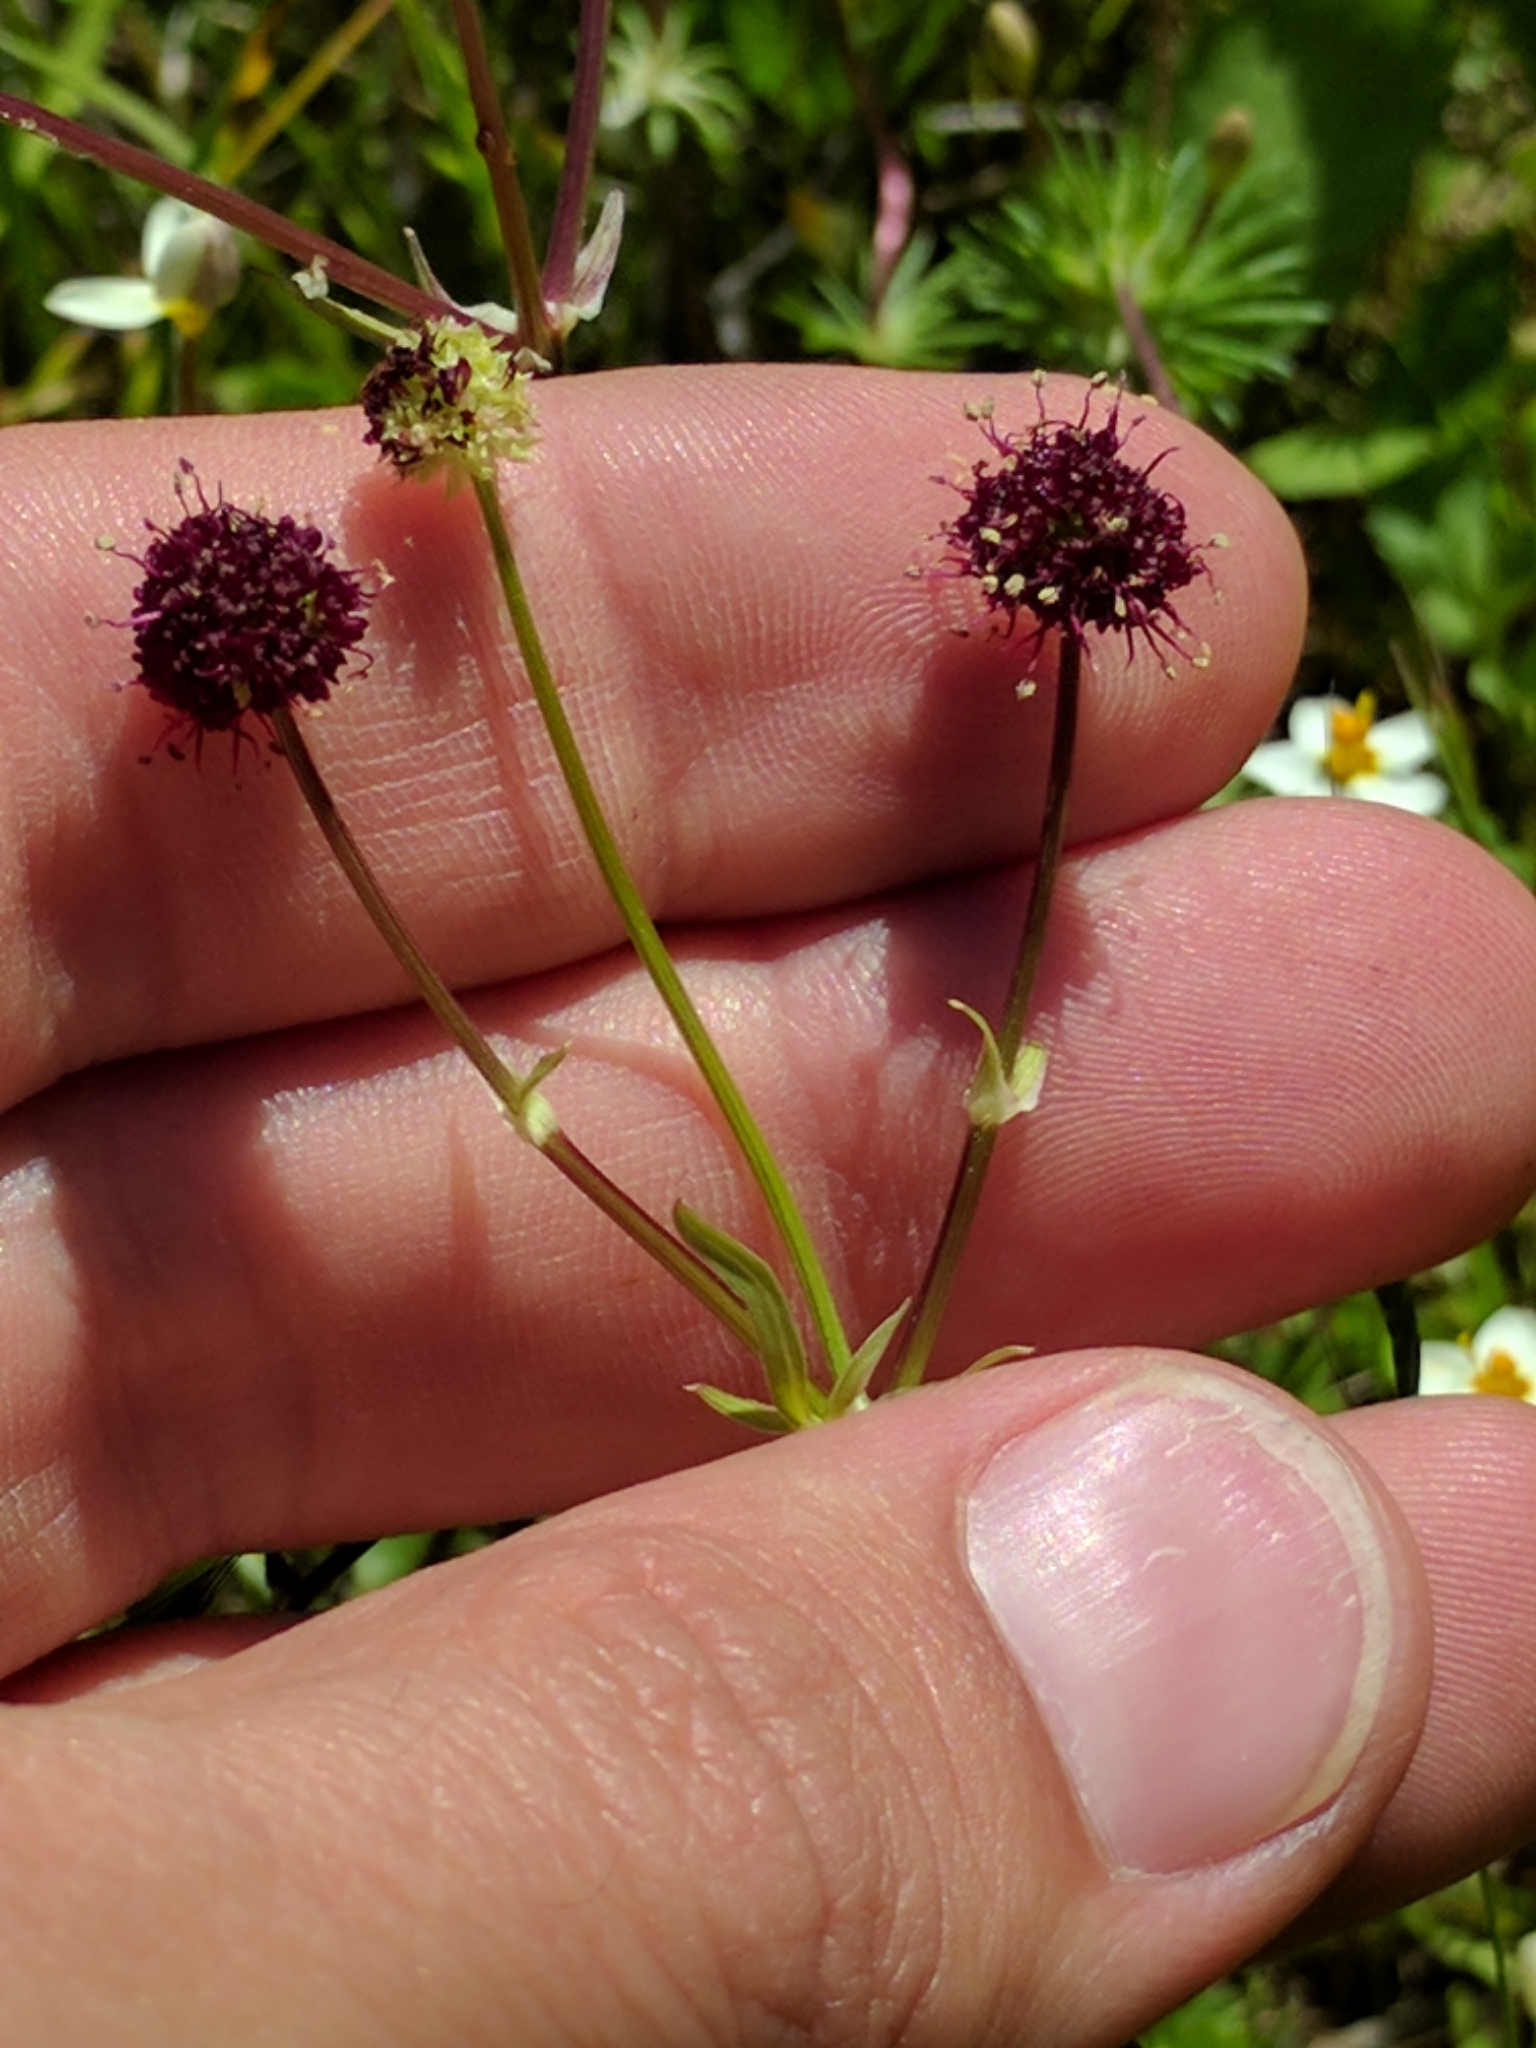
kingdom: Plantae
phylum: Tracheophyta
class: Magnoliopsida
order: Apiales
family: Apiaceae
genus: Sanicula
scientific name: Sanicula bipinnatifida
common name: Shoe-buttons
